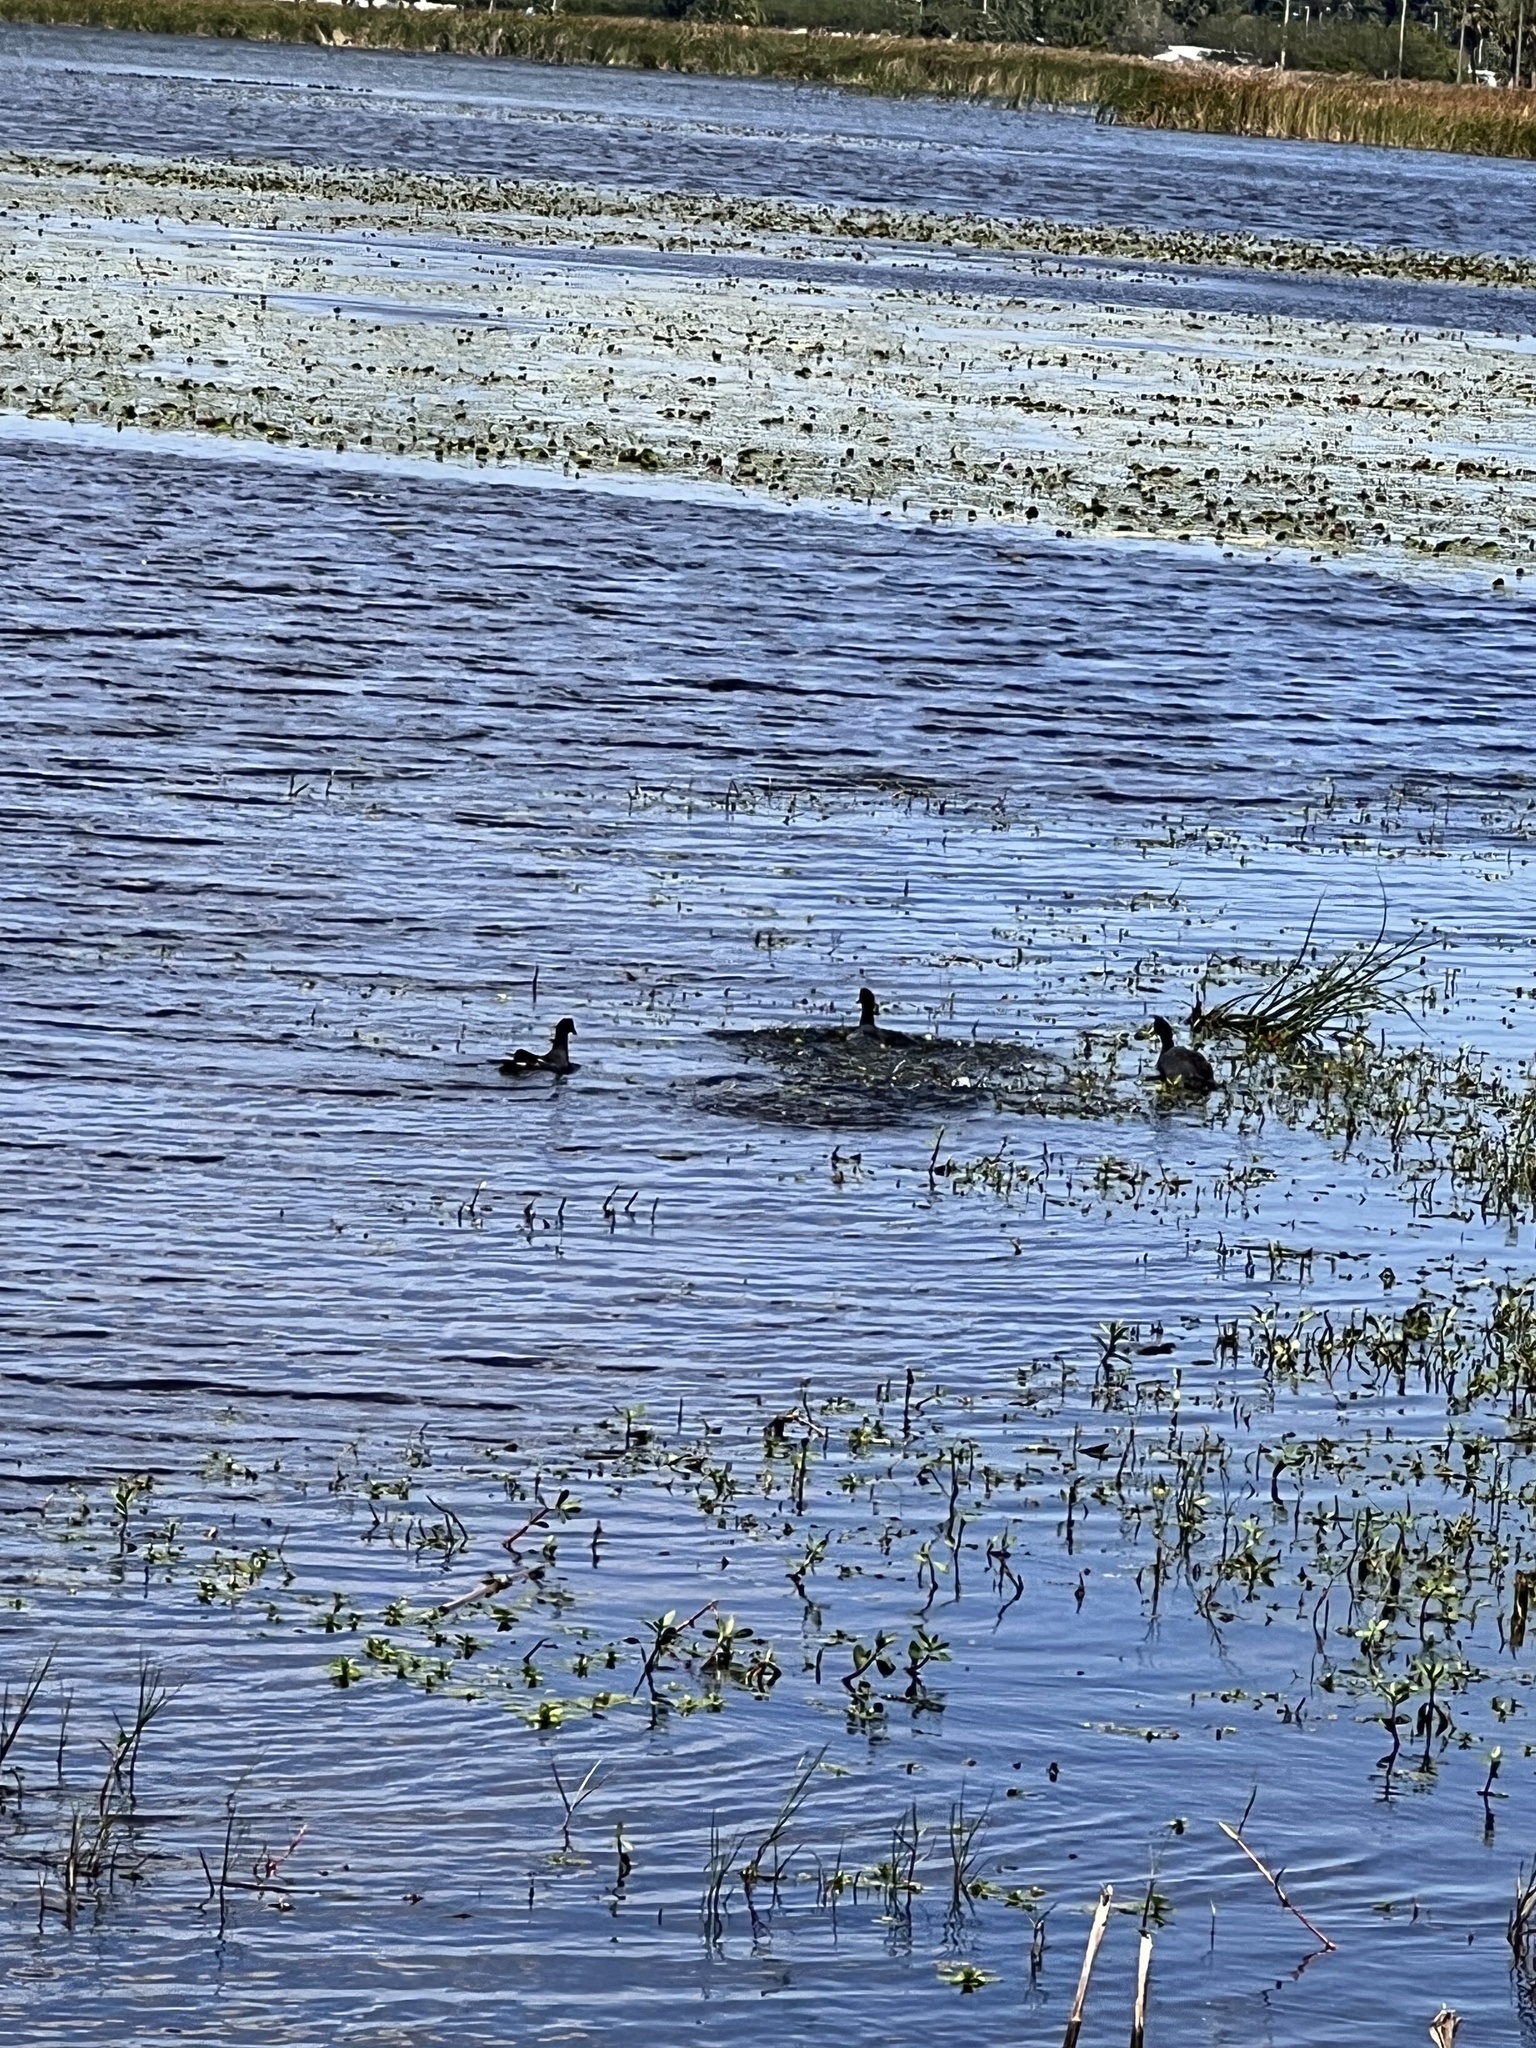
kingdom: Animalia
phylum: Chordata
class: Aves
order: Gruiformes
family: Rallidae
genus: Fulica
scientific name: Fulica americana
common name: American coot
